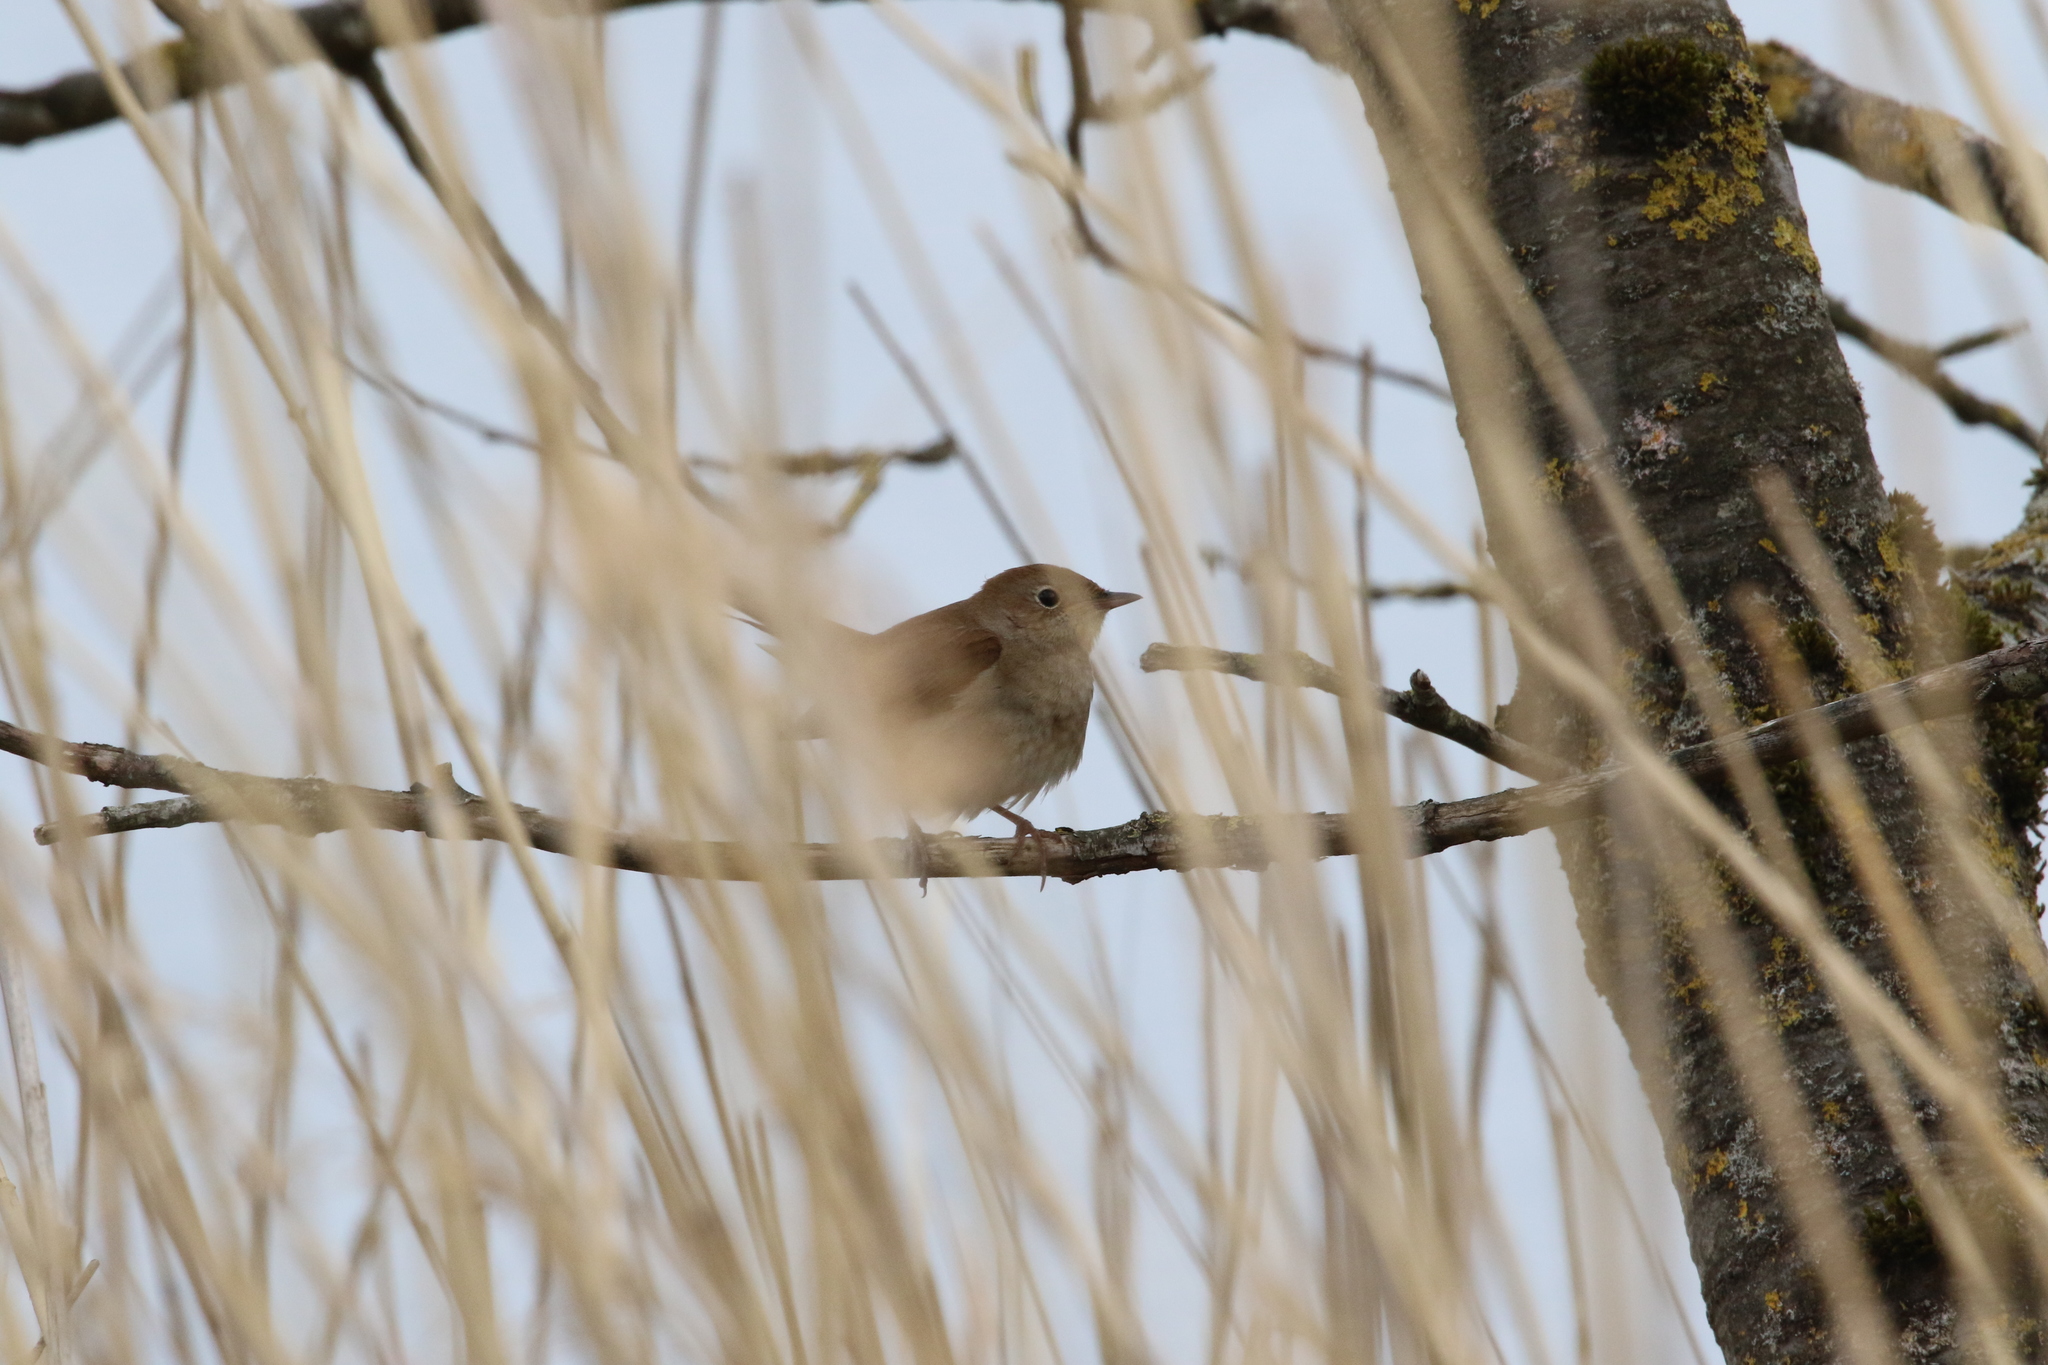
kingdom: Animalia
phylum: Chordata
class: Aves
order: Passeriformes
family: Muscicapidae
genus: Luscinia
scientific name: Luscinia megarhynchos
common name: Common nightingale
